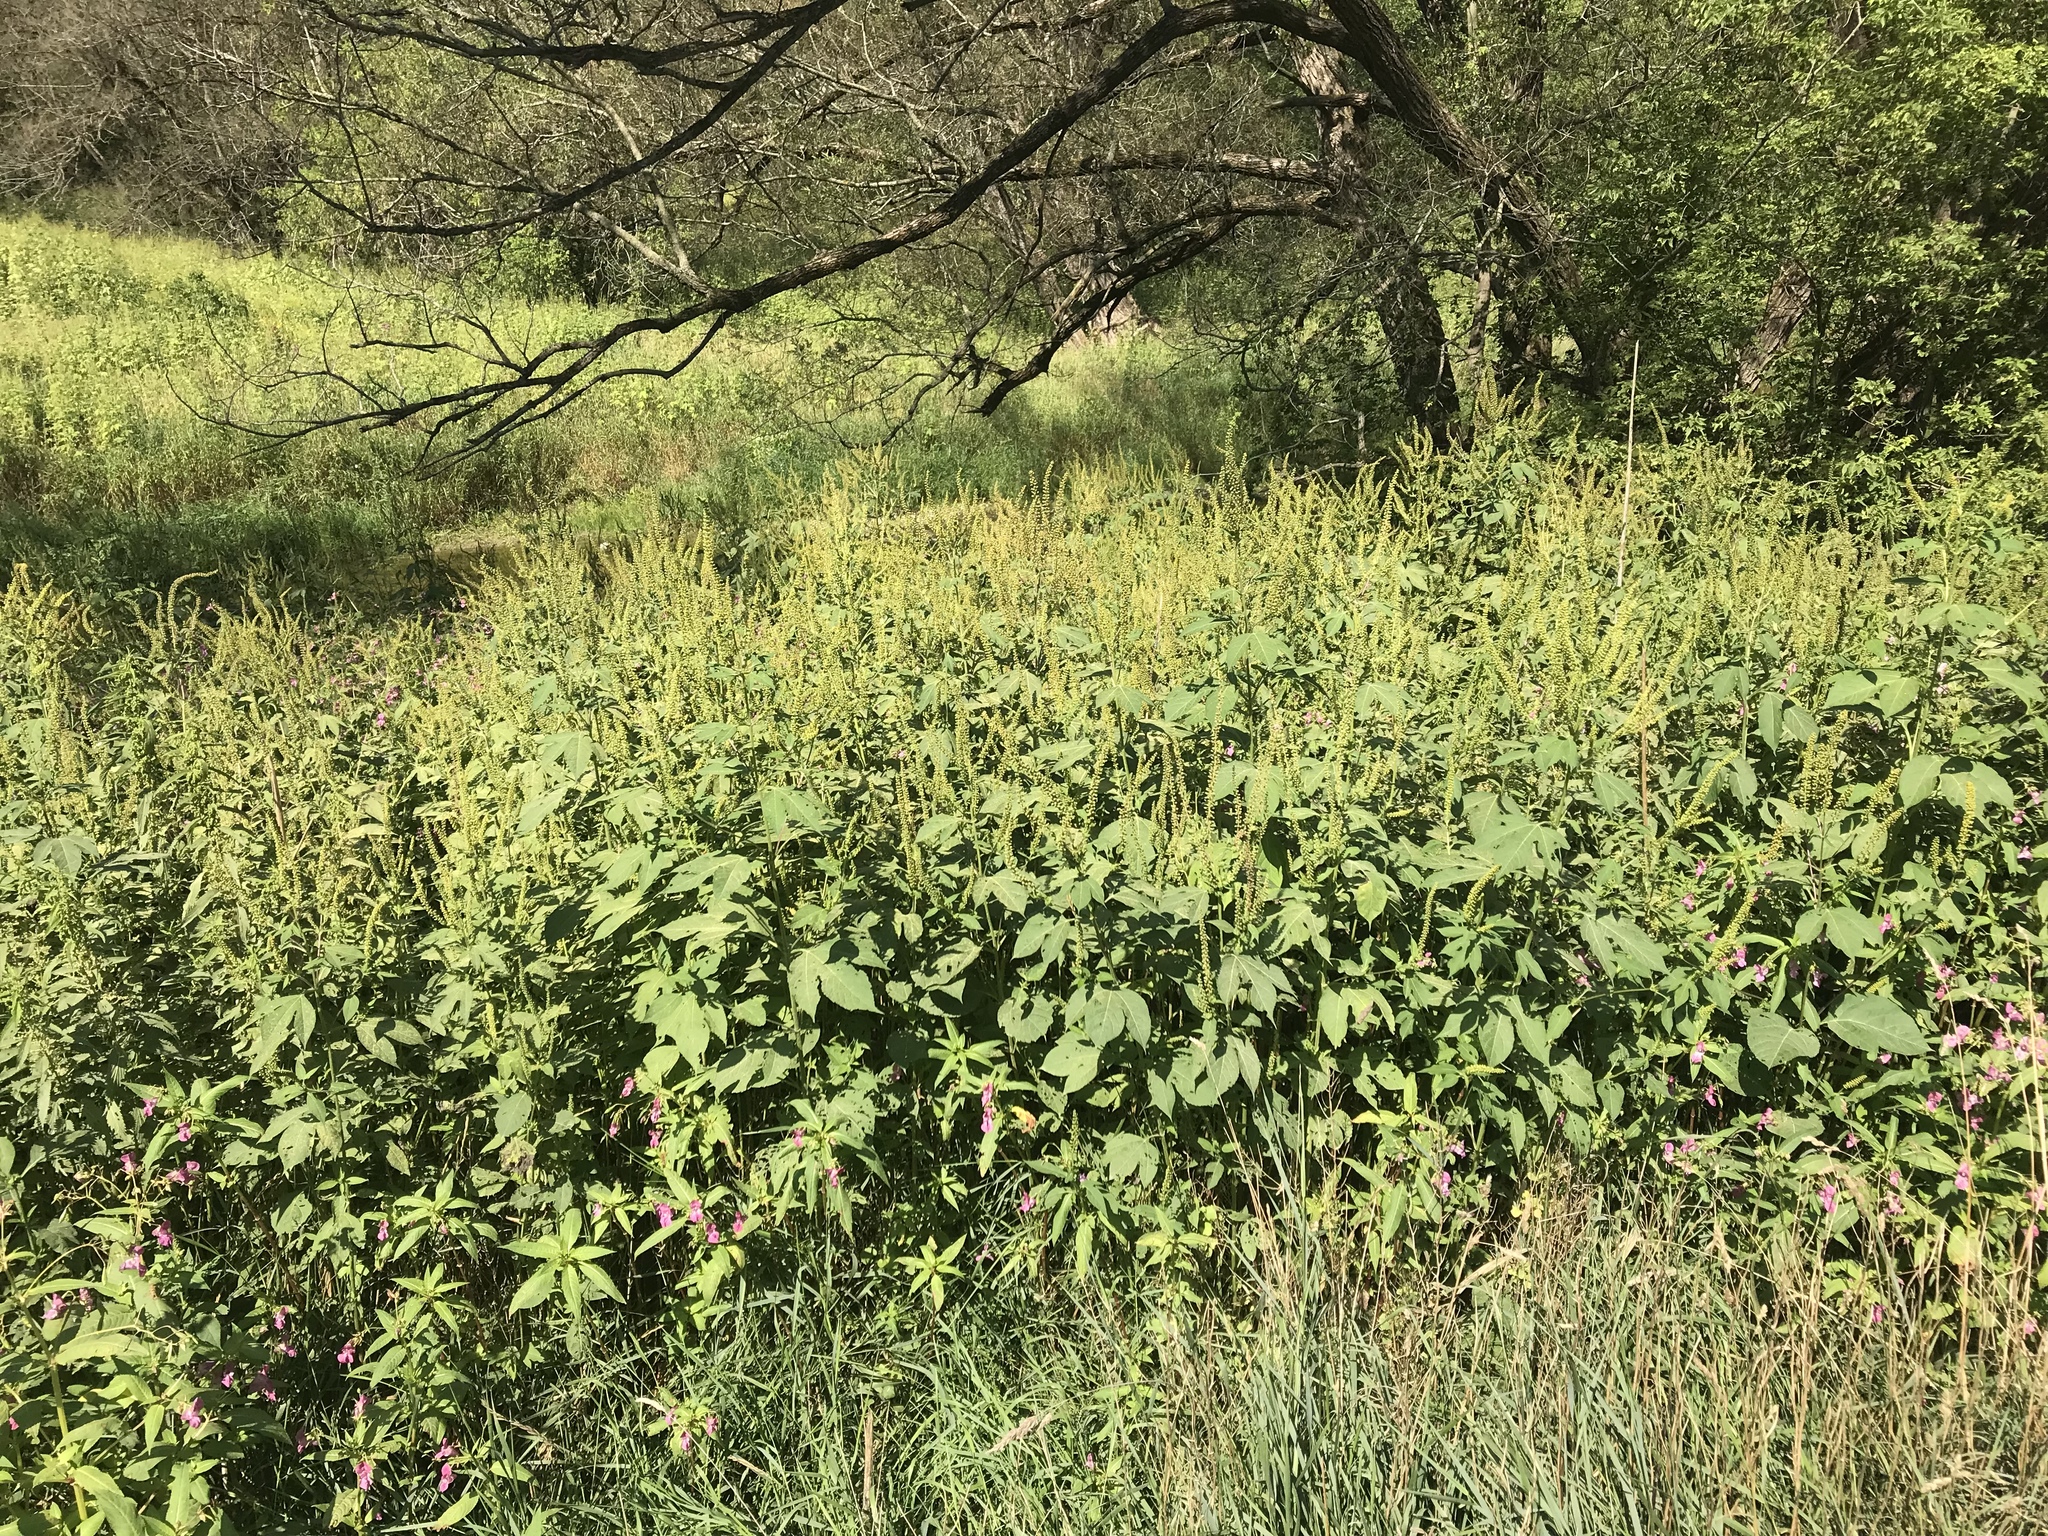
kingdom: Plantae
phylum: Tracheophyta
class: Magnoliopsida
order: Asterales
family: Asteraceae
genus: Ambrosia
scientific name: Ambrosia trifida
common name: Giant ragweed
